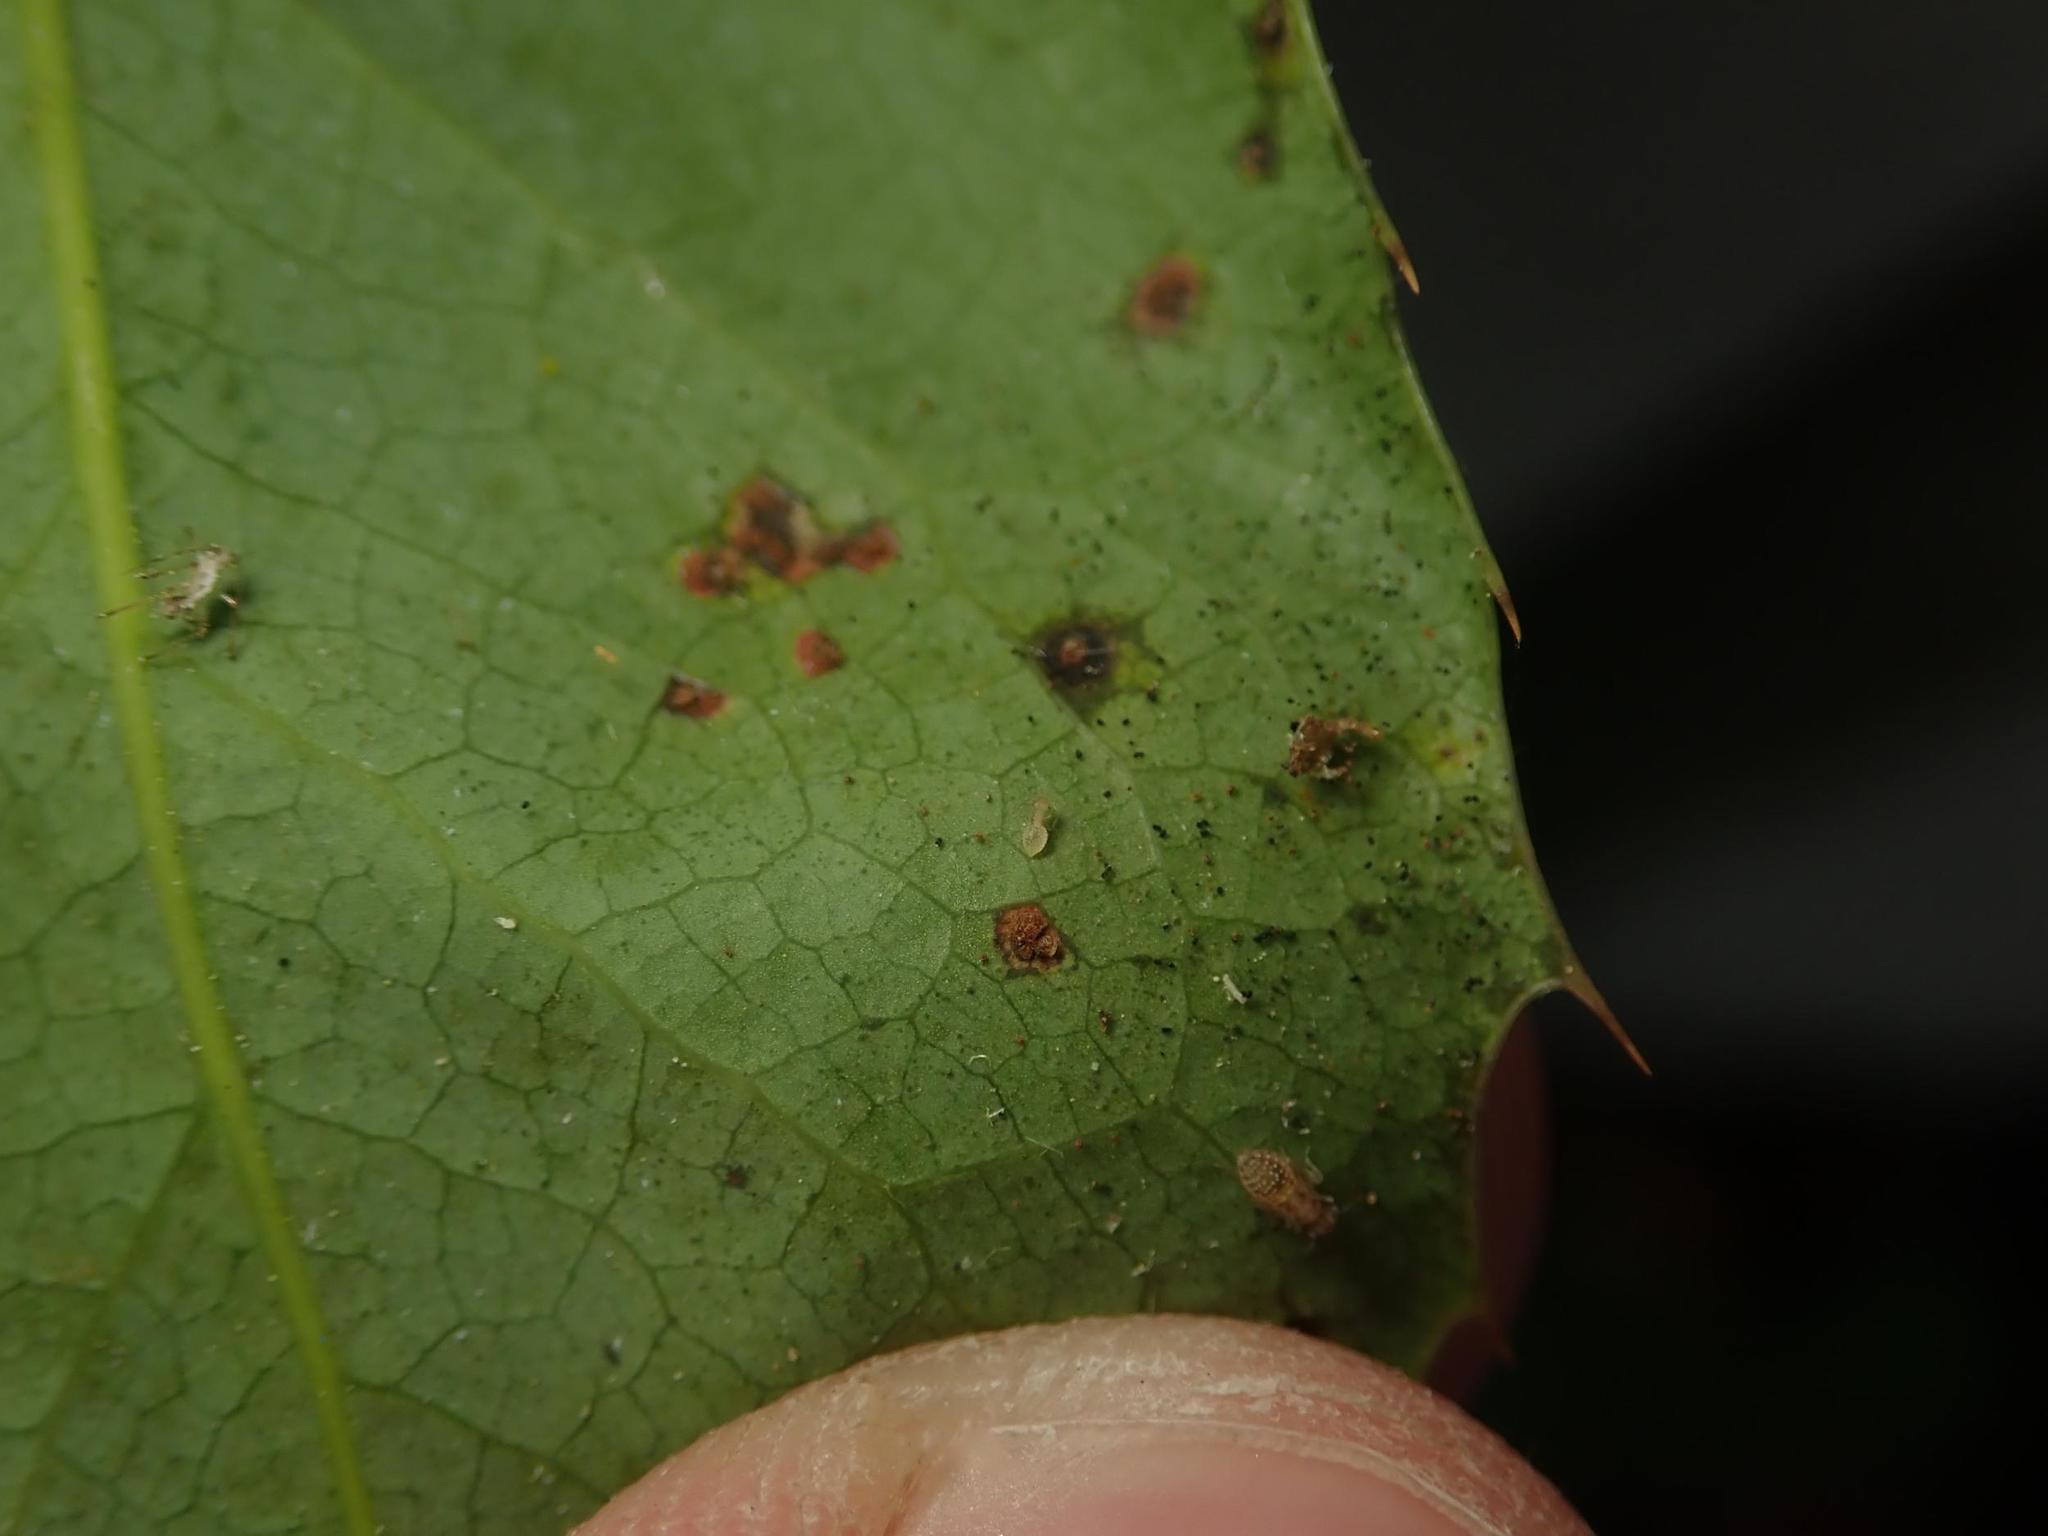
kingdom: Fungi
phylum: Basidiomycota
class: Pucciniomycetes
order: Pucciniales
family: Pucciniaceae
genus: Cumminsiella
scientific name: Cumminsiella mirabilissima
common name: Mahonia rust
